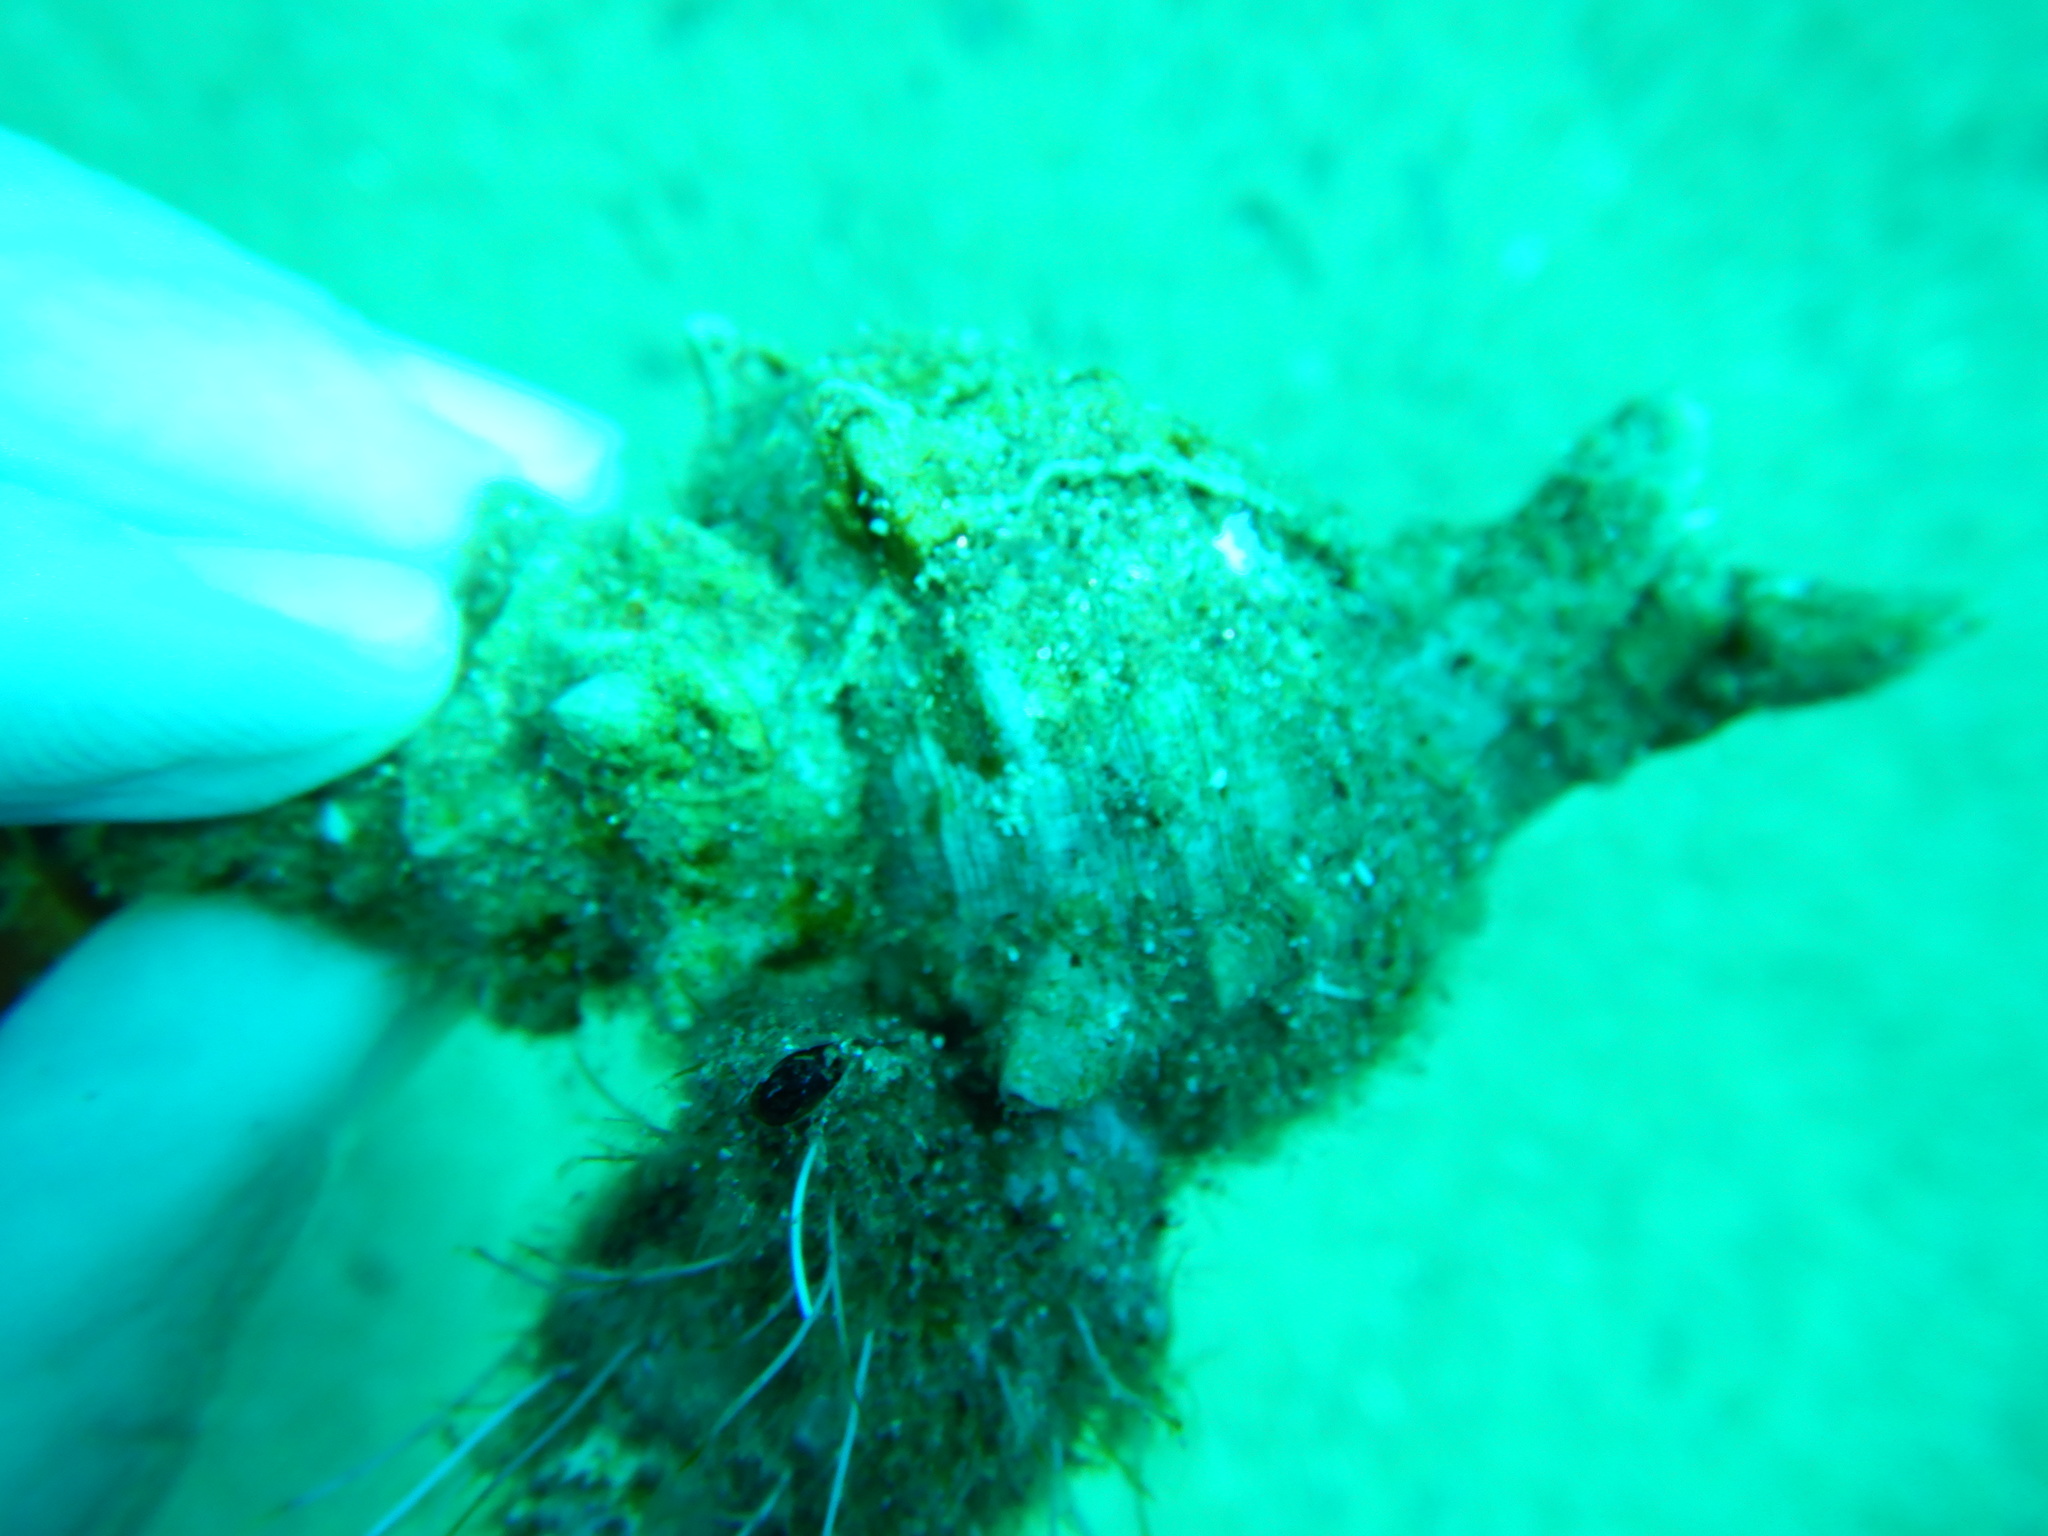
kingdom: Animalia
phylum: Mollusca
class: Gastropoda
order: Neogastropoda
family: Muricidae
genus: Hexaplex
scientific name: Hexaplex trunculus
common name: Banded dye-murex
